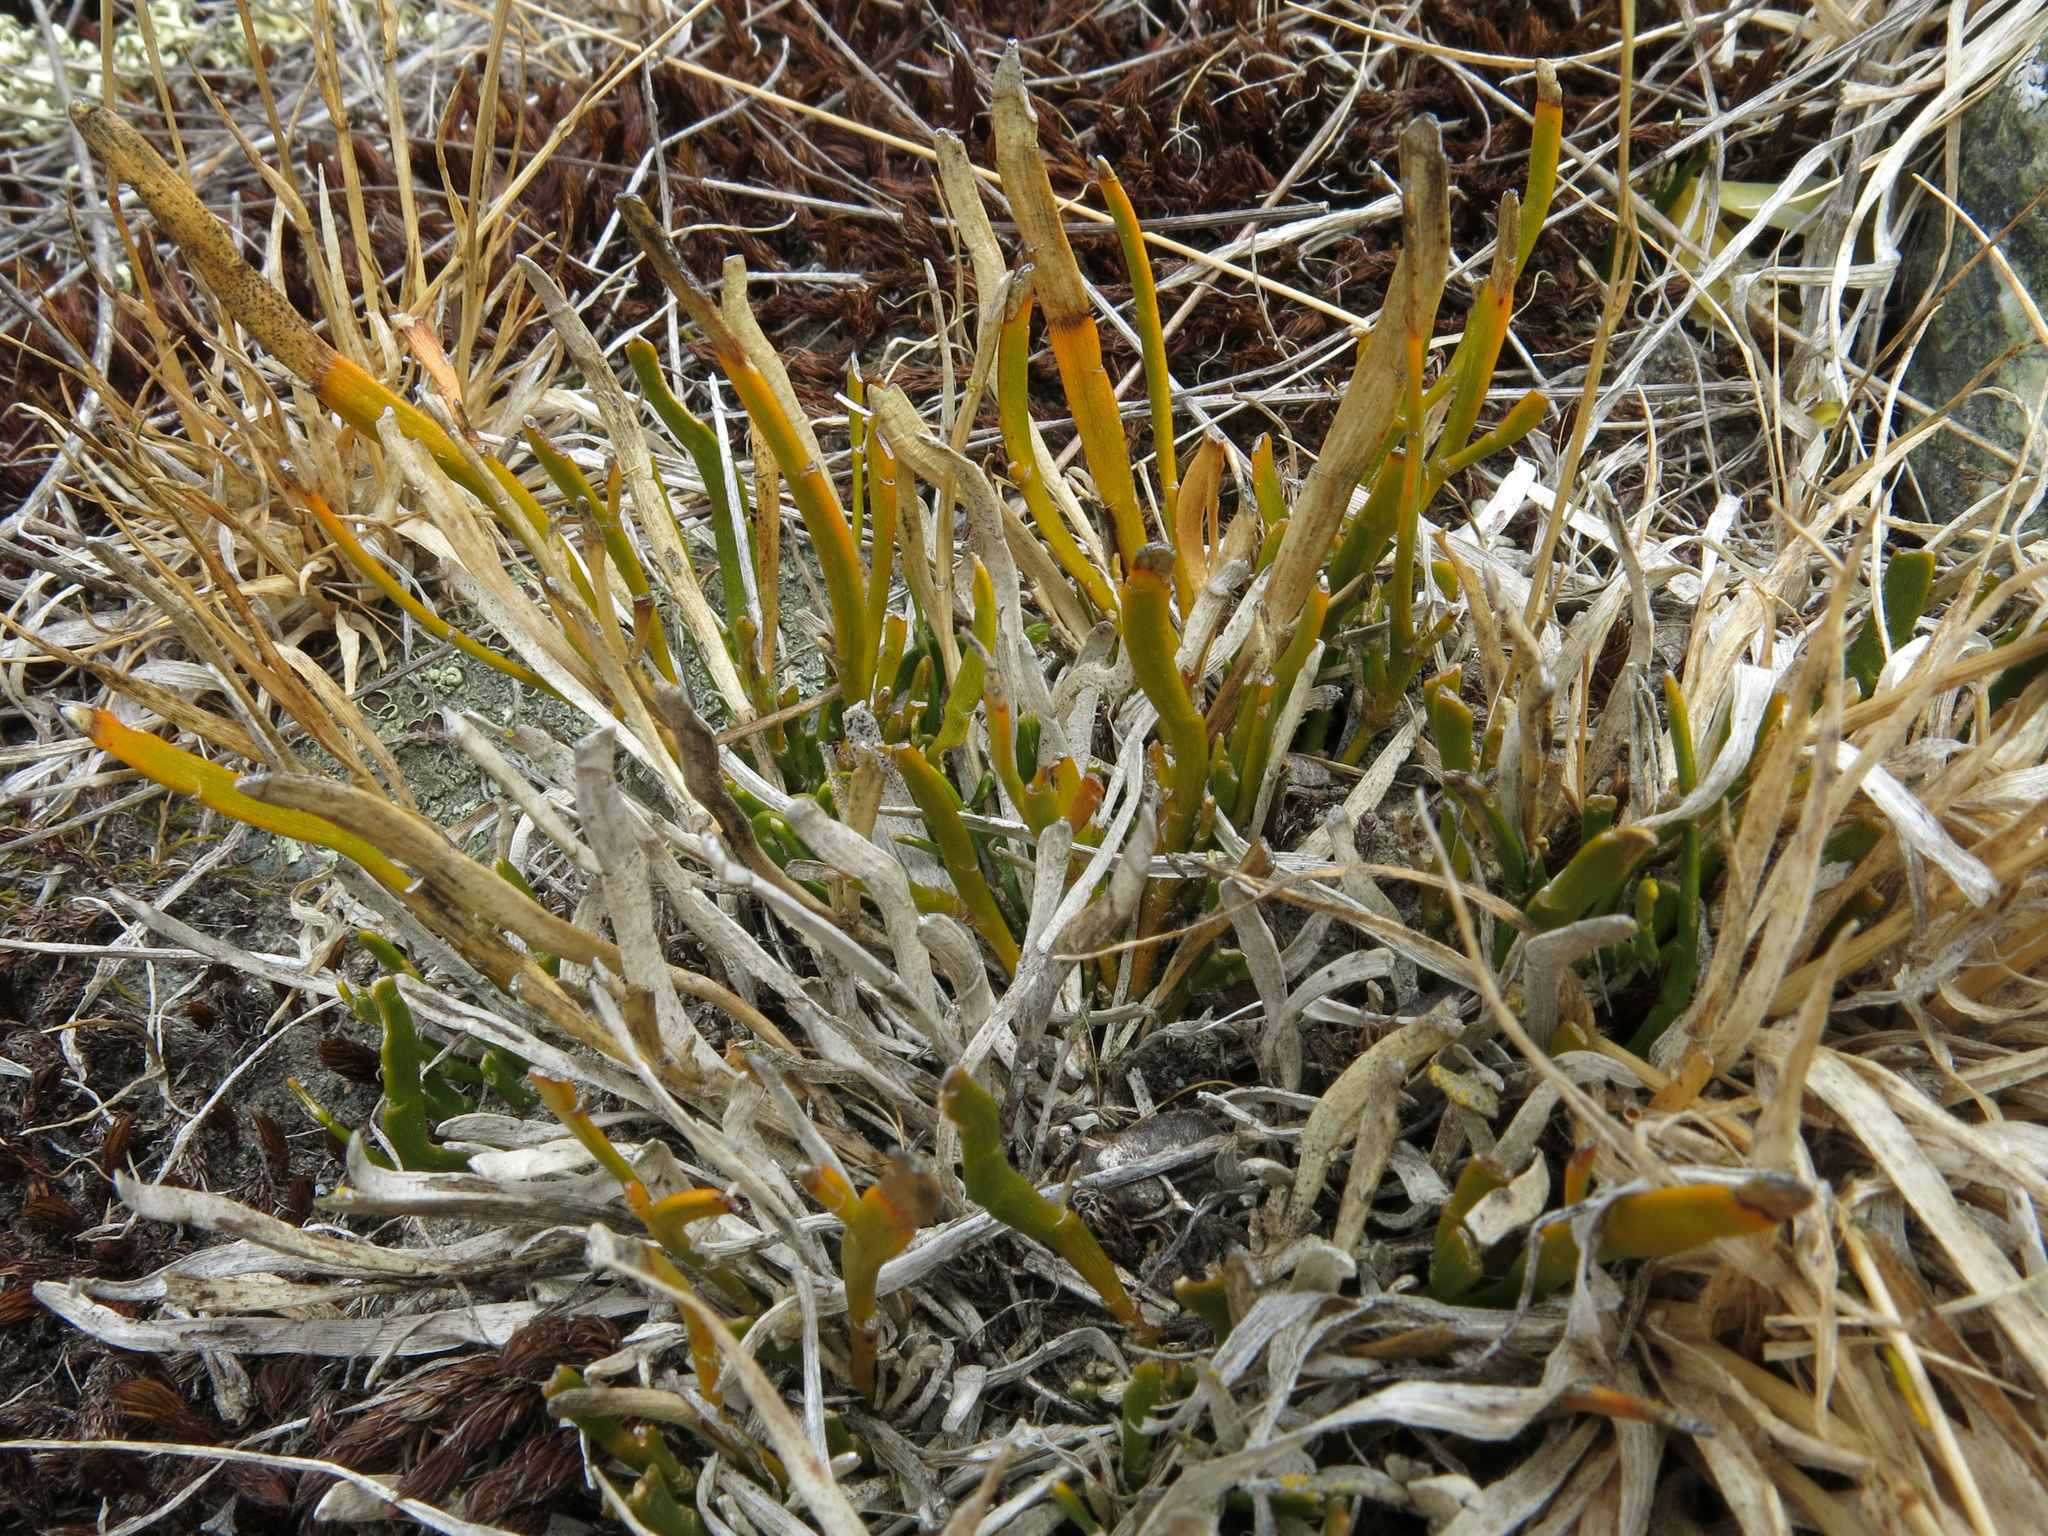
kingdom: Plantae
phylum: Tracheophyta
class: Magnoliopsida
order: Fabales
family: Fabaceae
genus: Carmichaelia
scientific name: Carmichaelia corrugata
